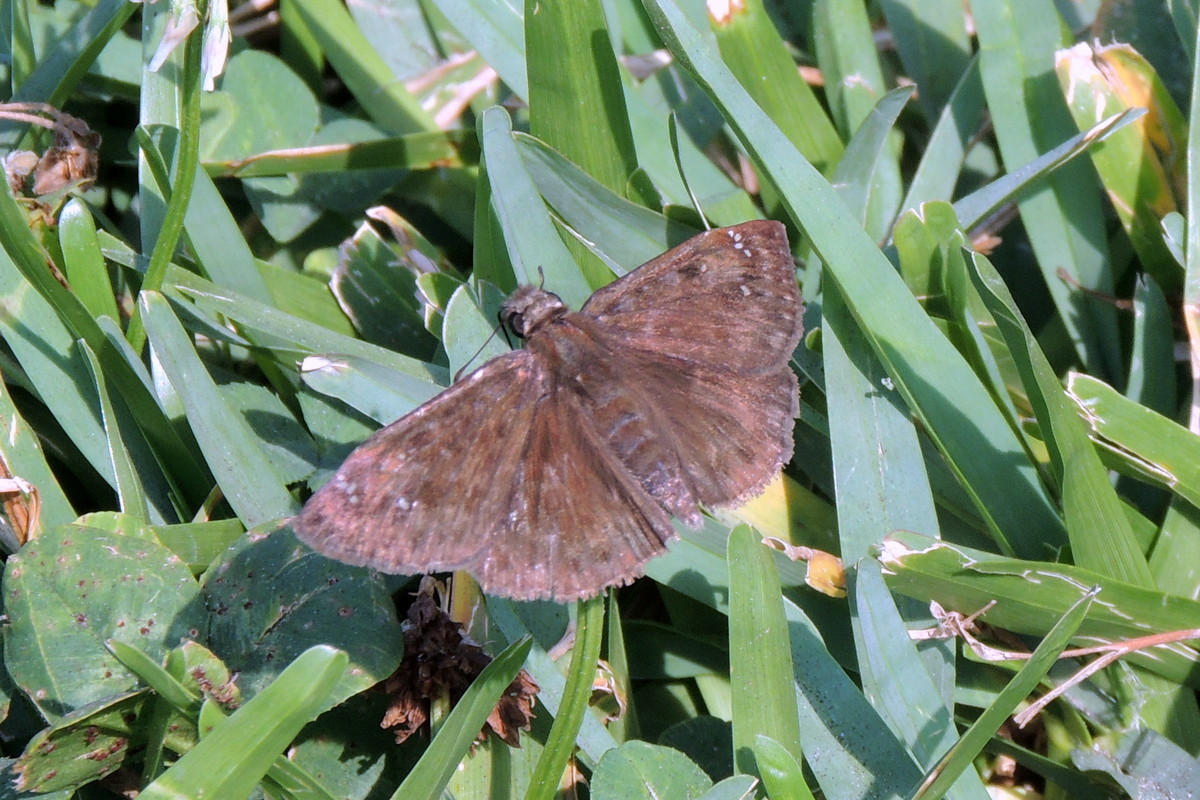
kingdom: Animalia
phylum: Arthropoda
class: Insecta
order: Lepidoptera
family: Hesperiidae
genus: Erynnis
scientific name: Erynnis horatius
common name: Horace's duskywing
